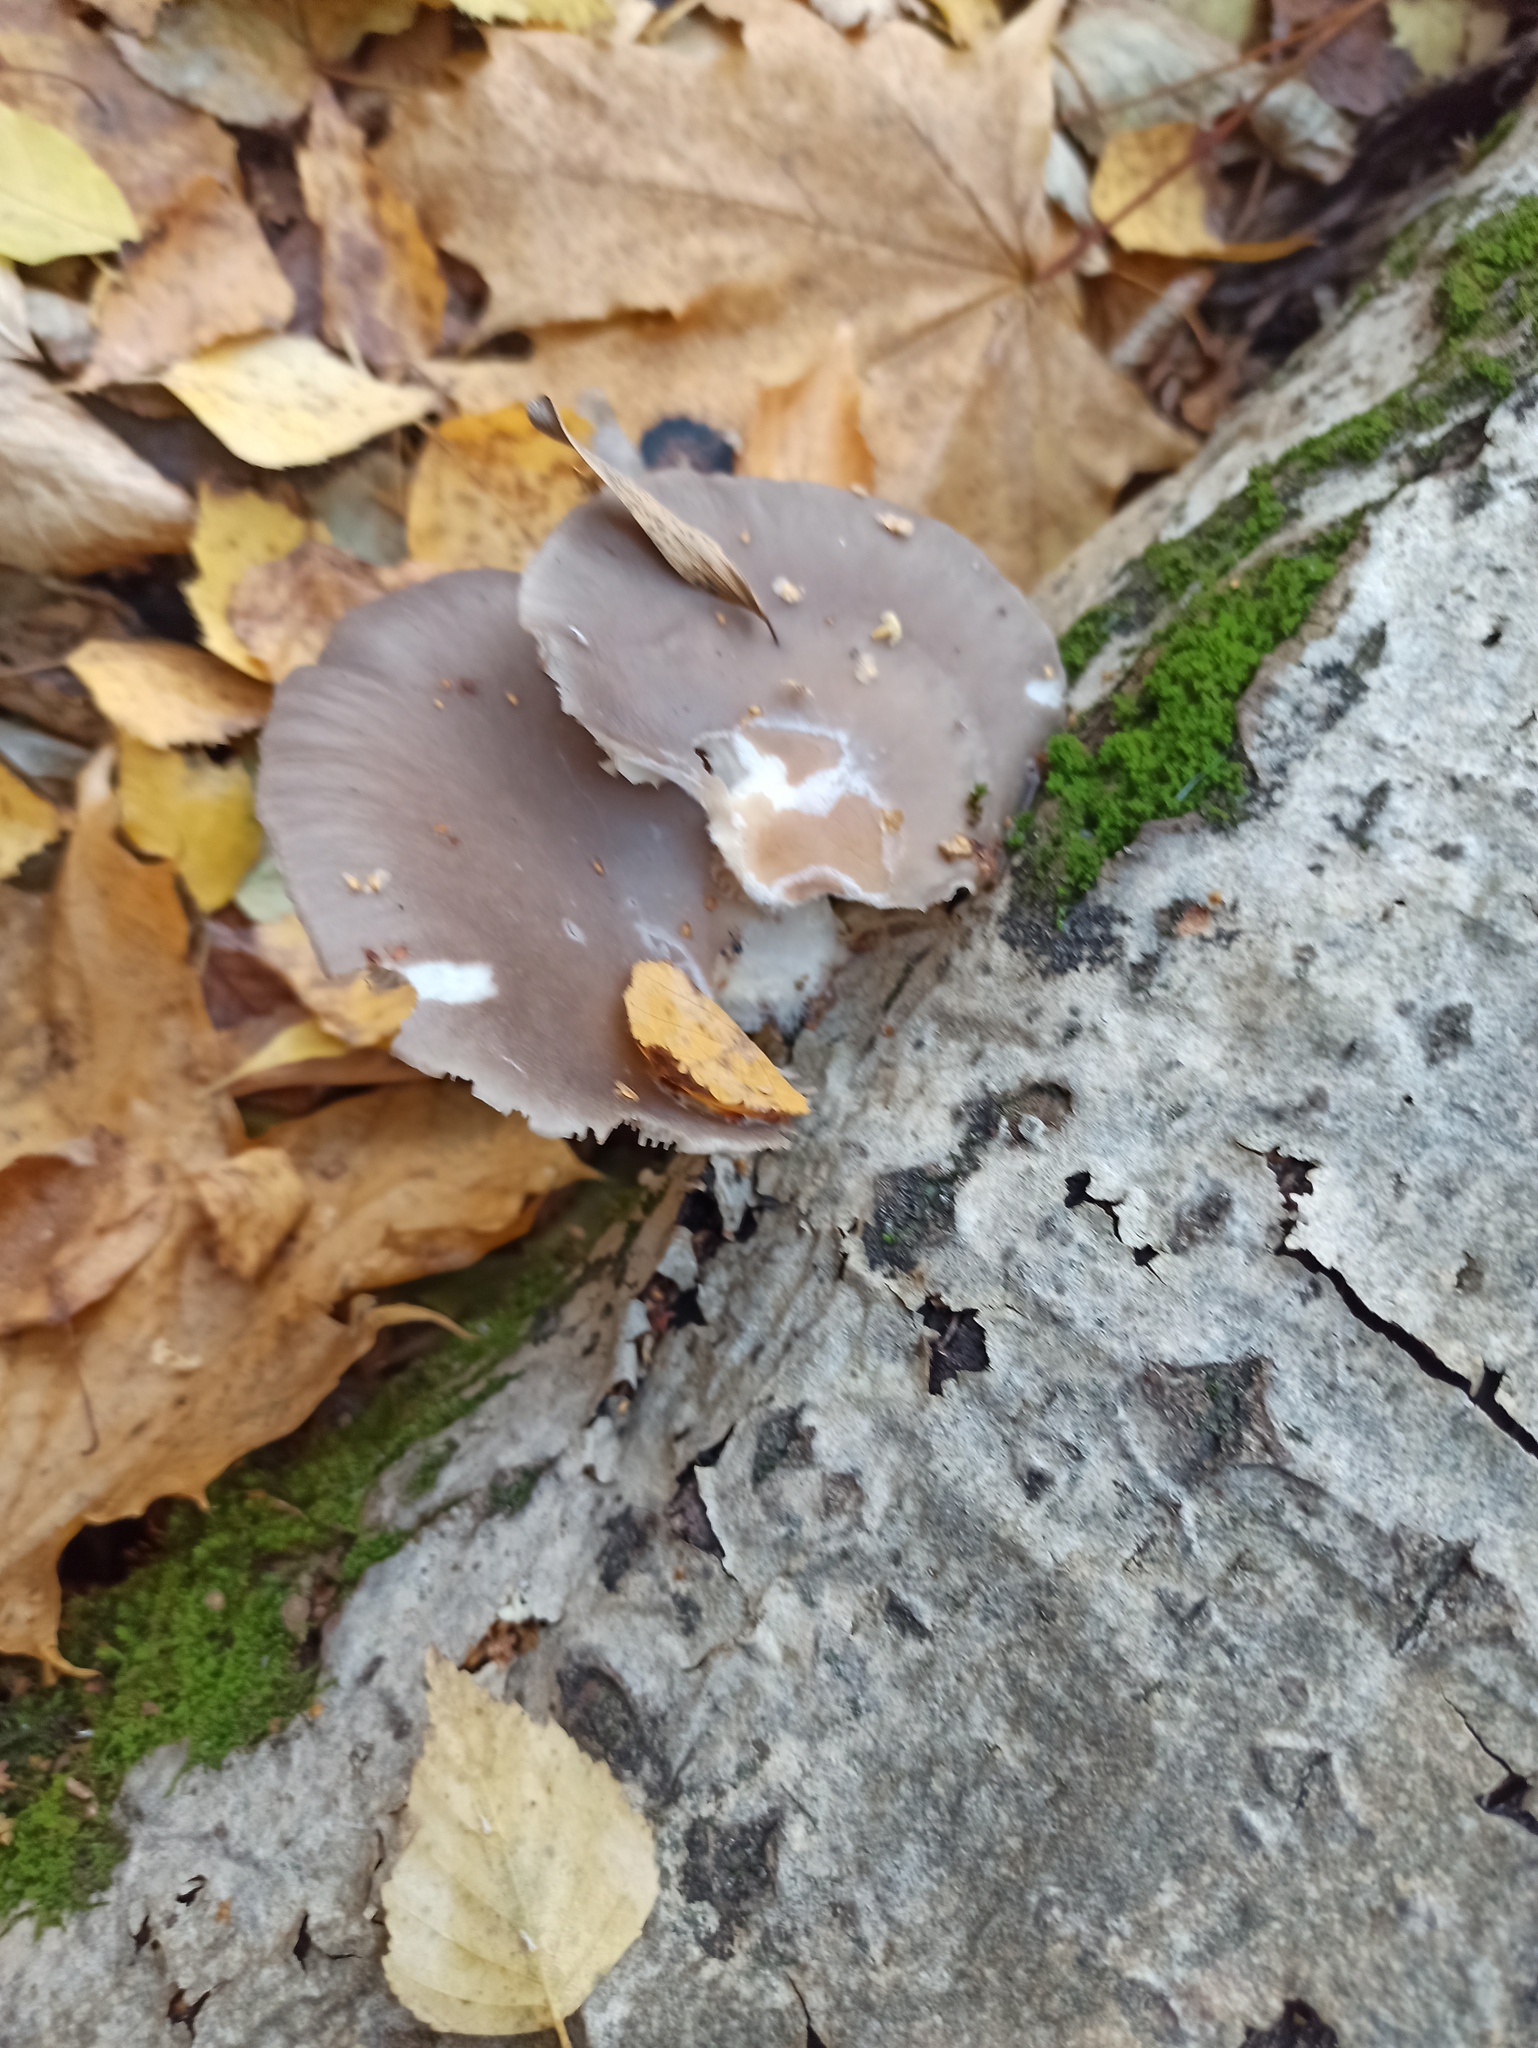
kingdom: Fungi
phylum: Basidiomycota
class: Agaricomycetes
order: Agaricales
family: Pleurotaceae
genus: Pleurotus
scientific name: Pleurotus ostreatus
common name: Oyster mushroom
